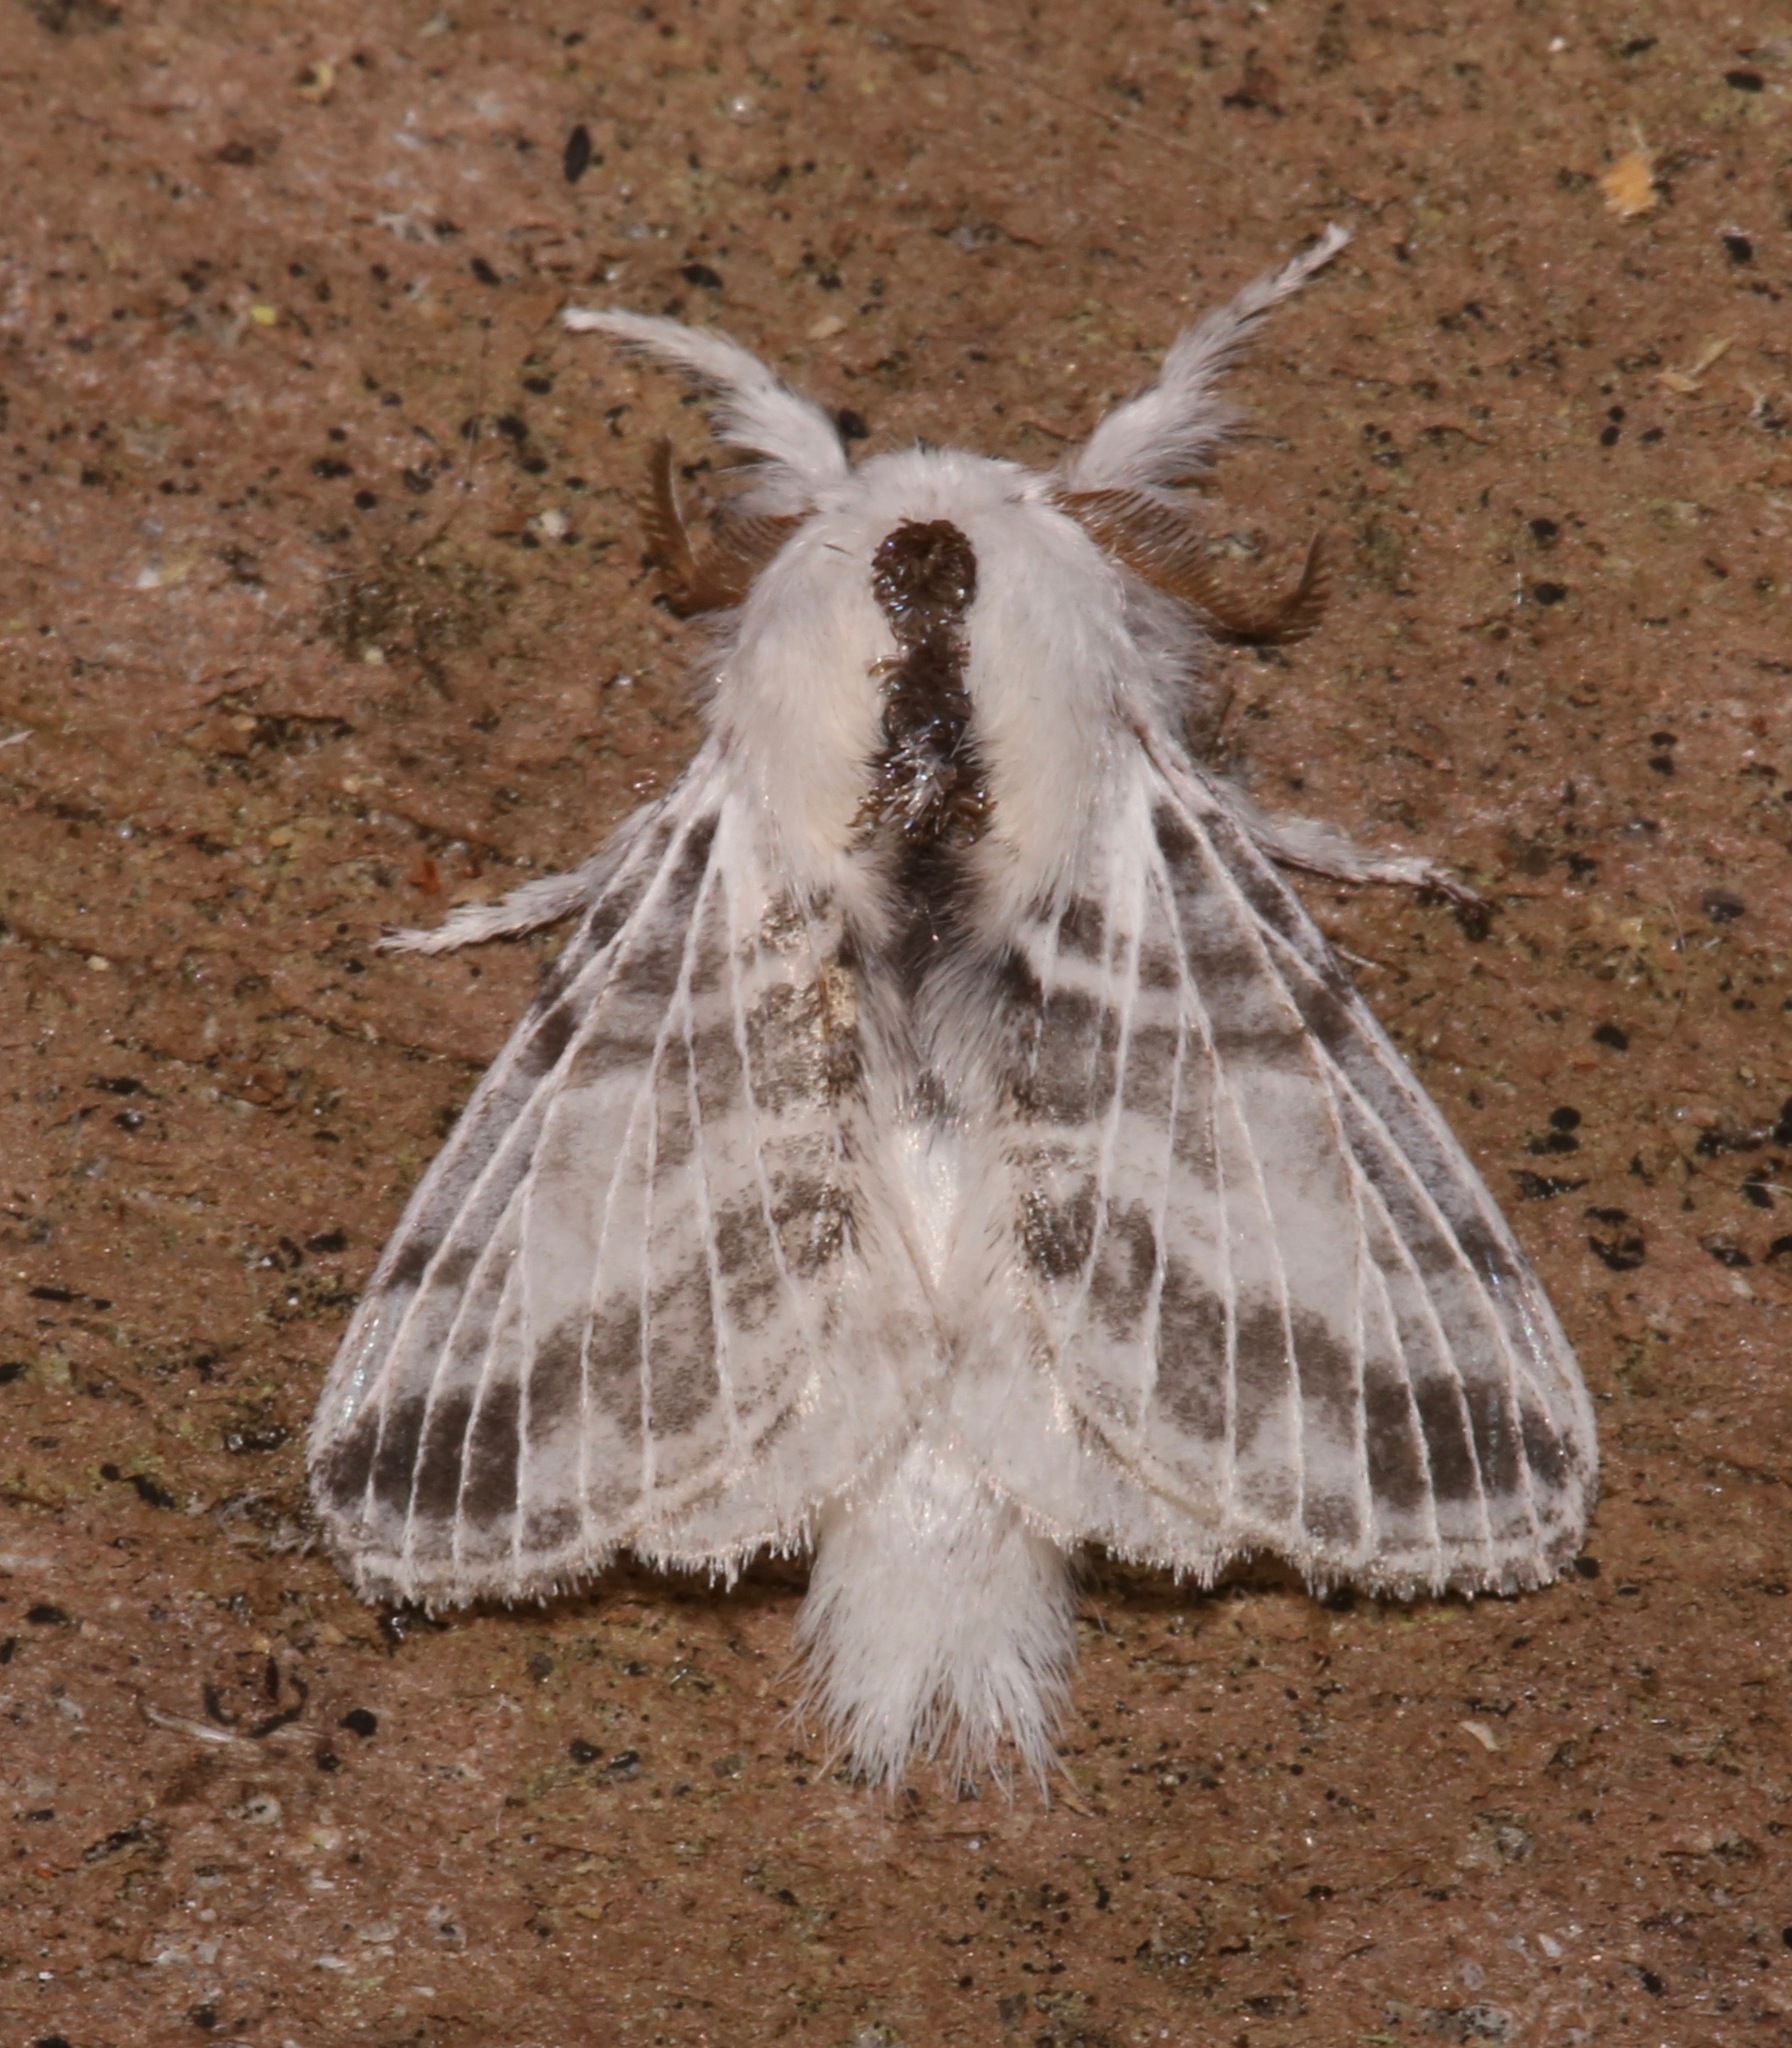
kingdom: Animalia
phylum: Arthropoda
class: Insecta
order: Lepidoptera
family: Lasiocampidae
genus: Tolype
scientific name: Tolype minta
